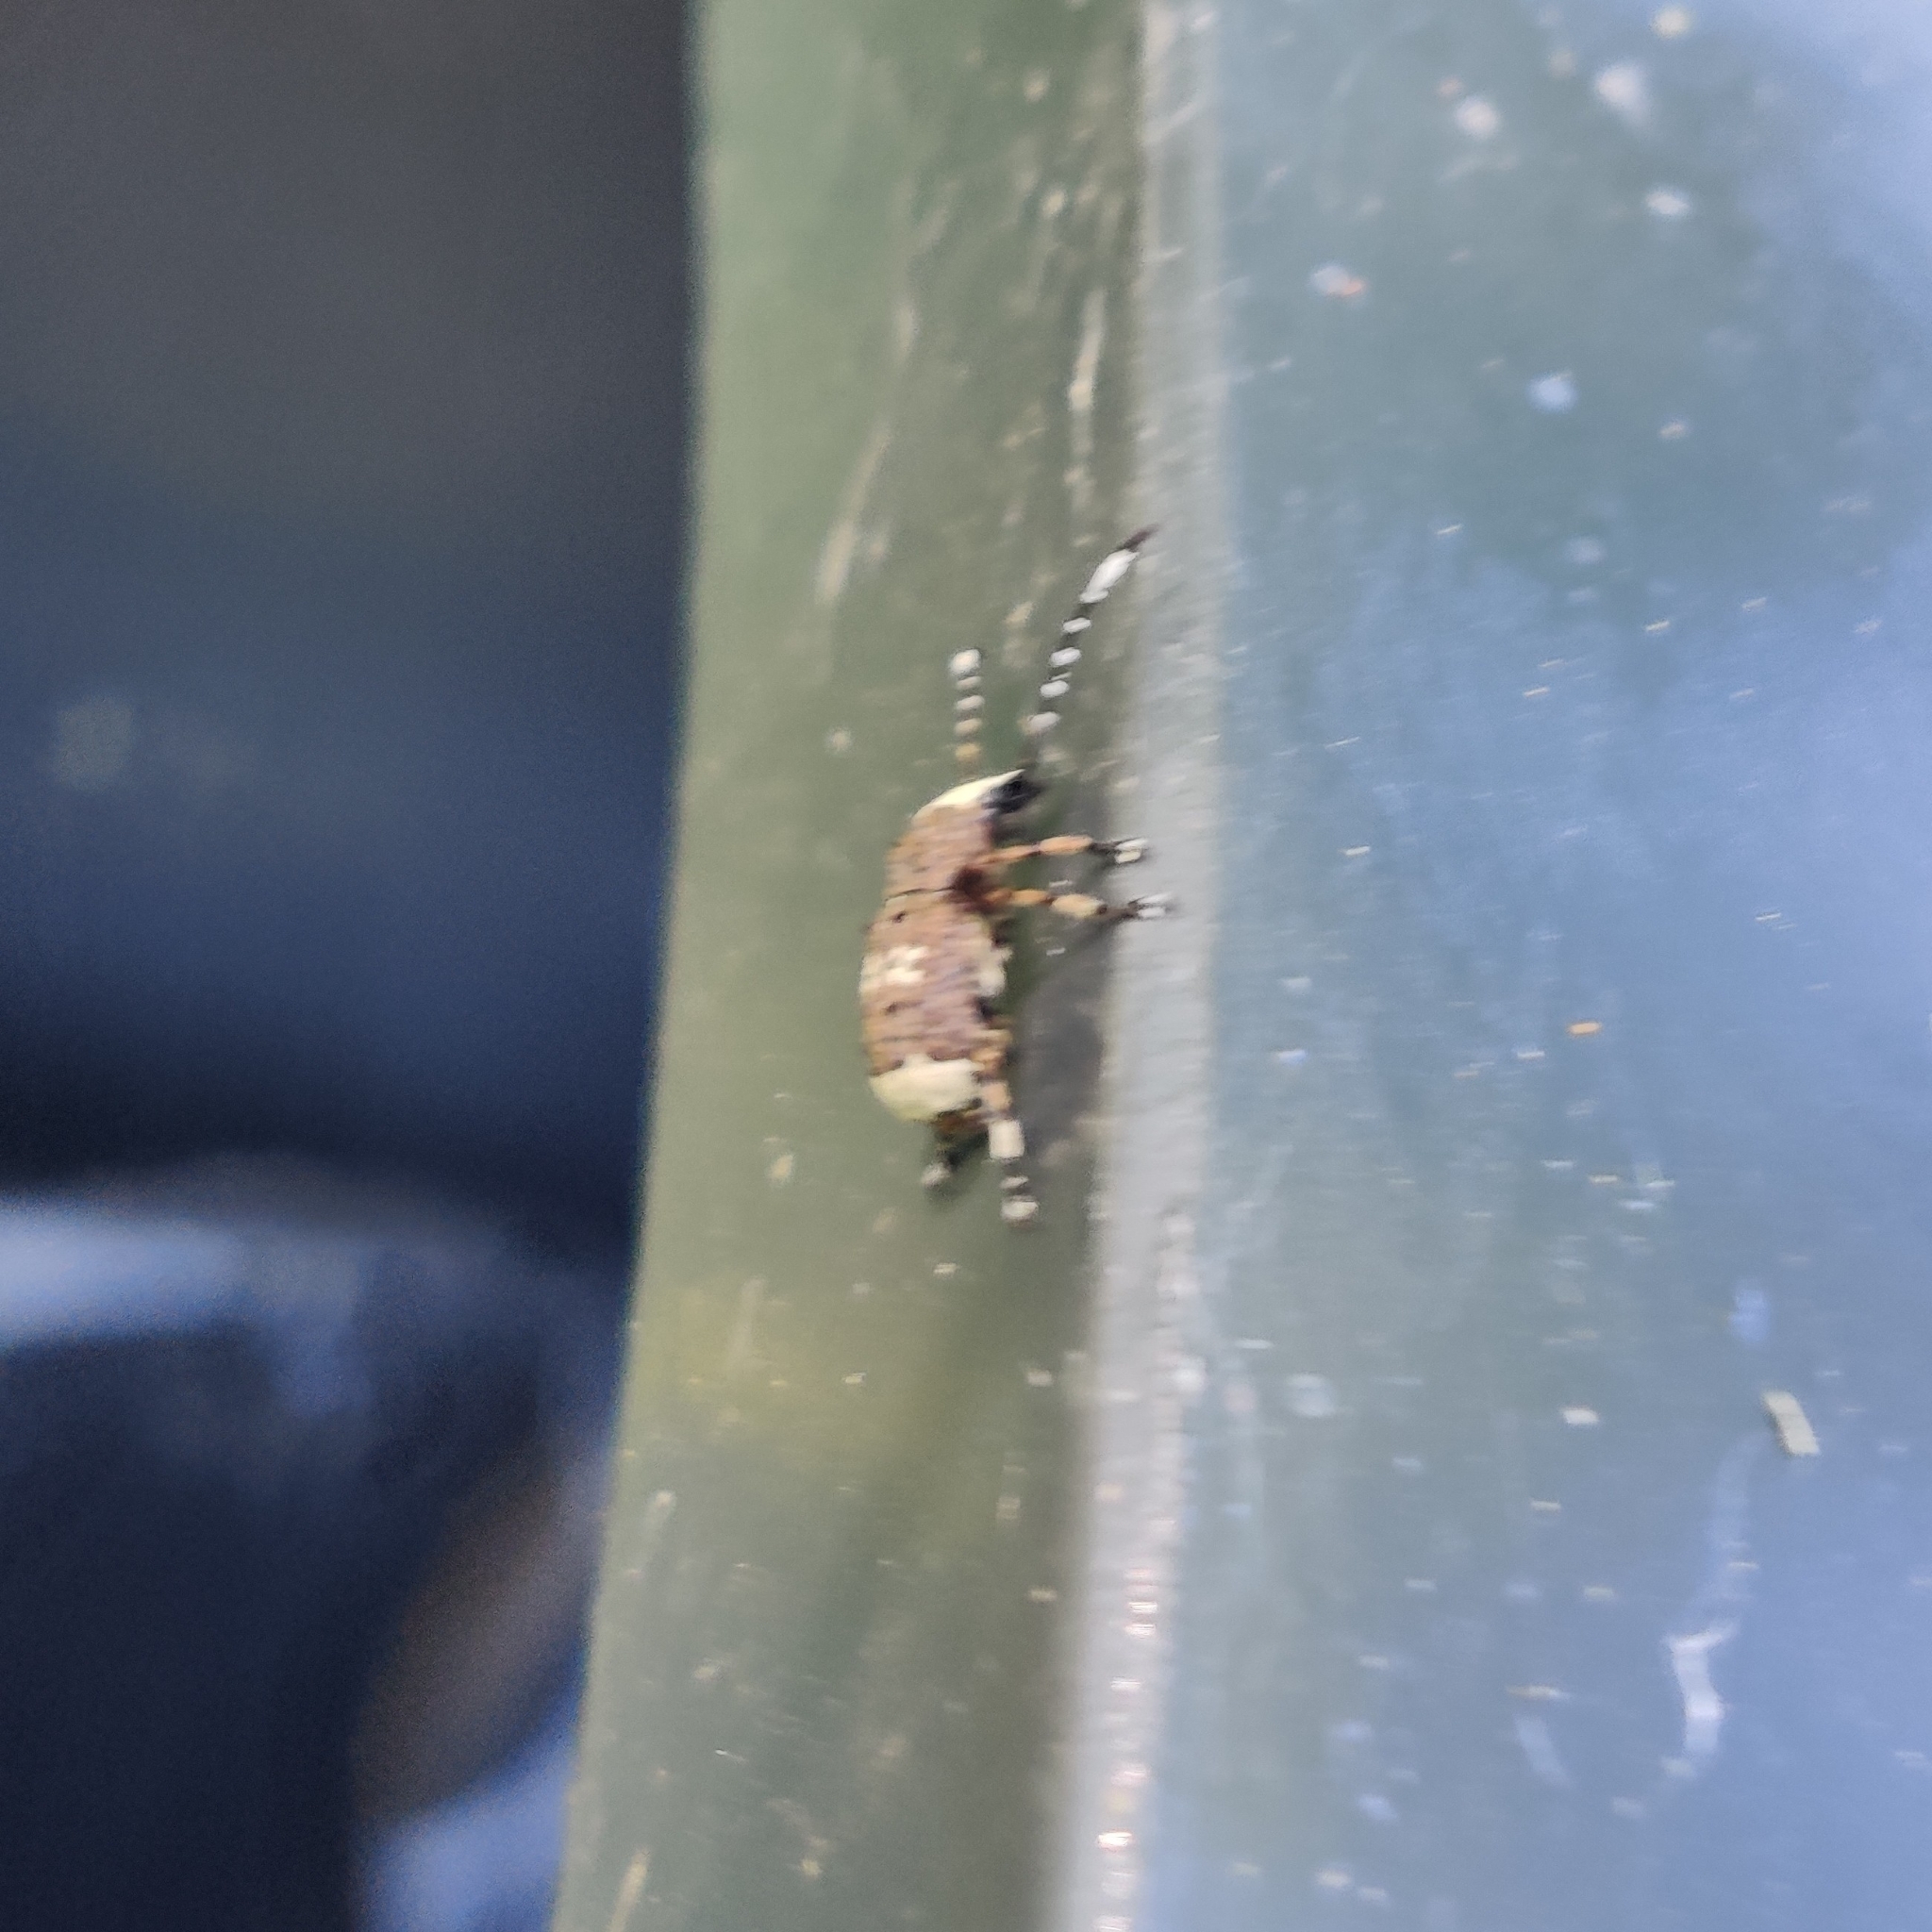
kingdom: Animalia
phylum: Arthropoda
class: Insecta
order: Coleoptera
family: Anthribidae
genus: Platystomos
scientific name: Platystomos albinus
